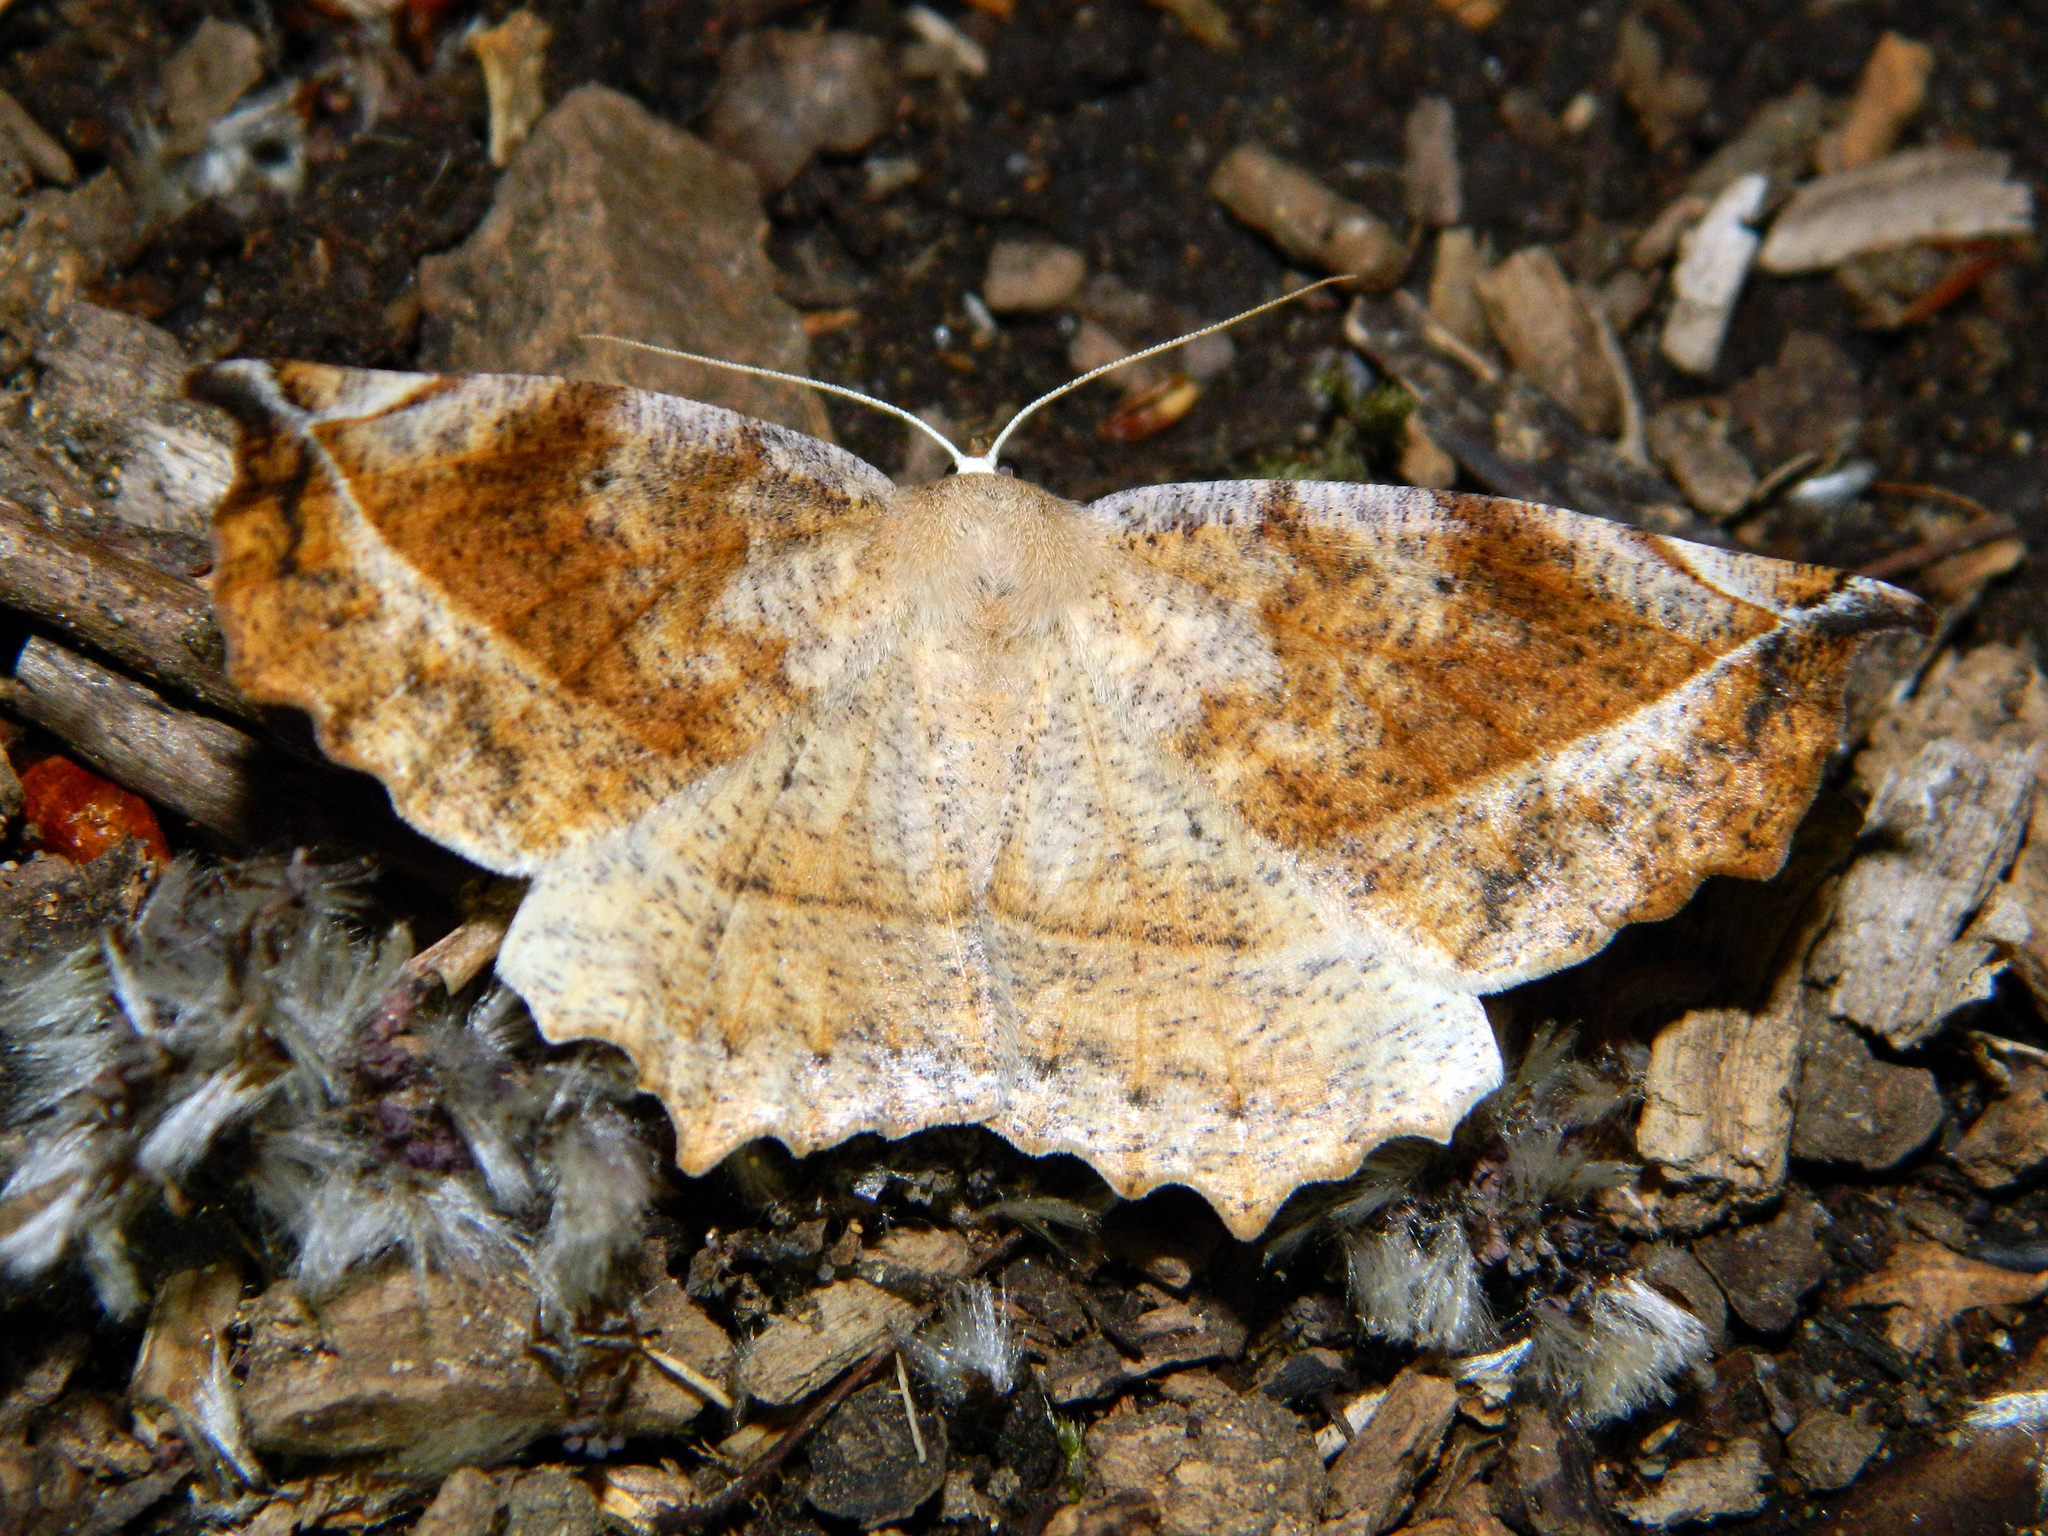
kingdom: Animalia
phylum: Arthropoda
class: Insecta
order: Lepidoptera
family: Geometridae
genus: Eutrapela
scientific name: Eutrapela clemataria
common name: Curved-toothed geometer
